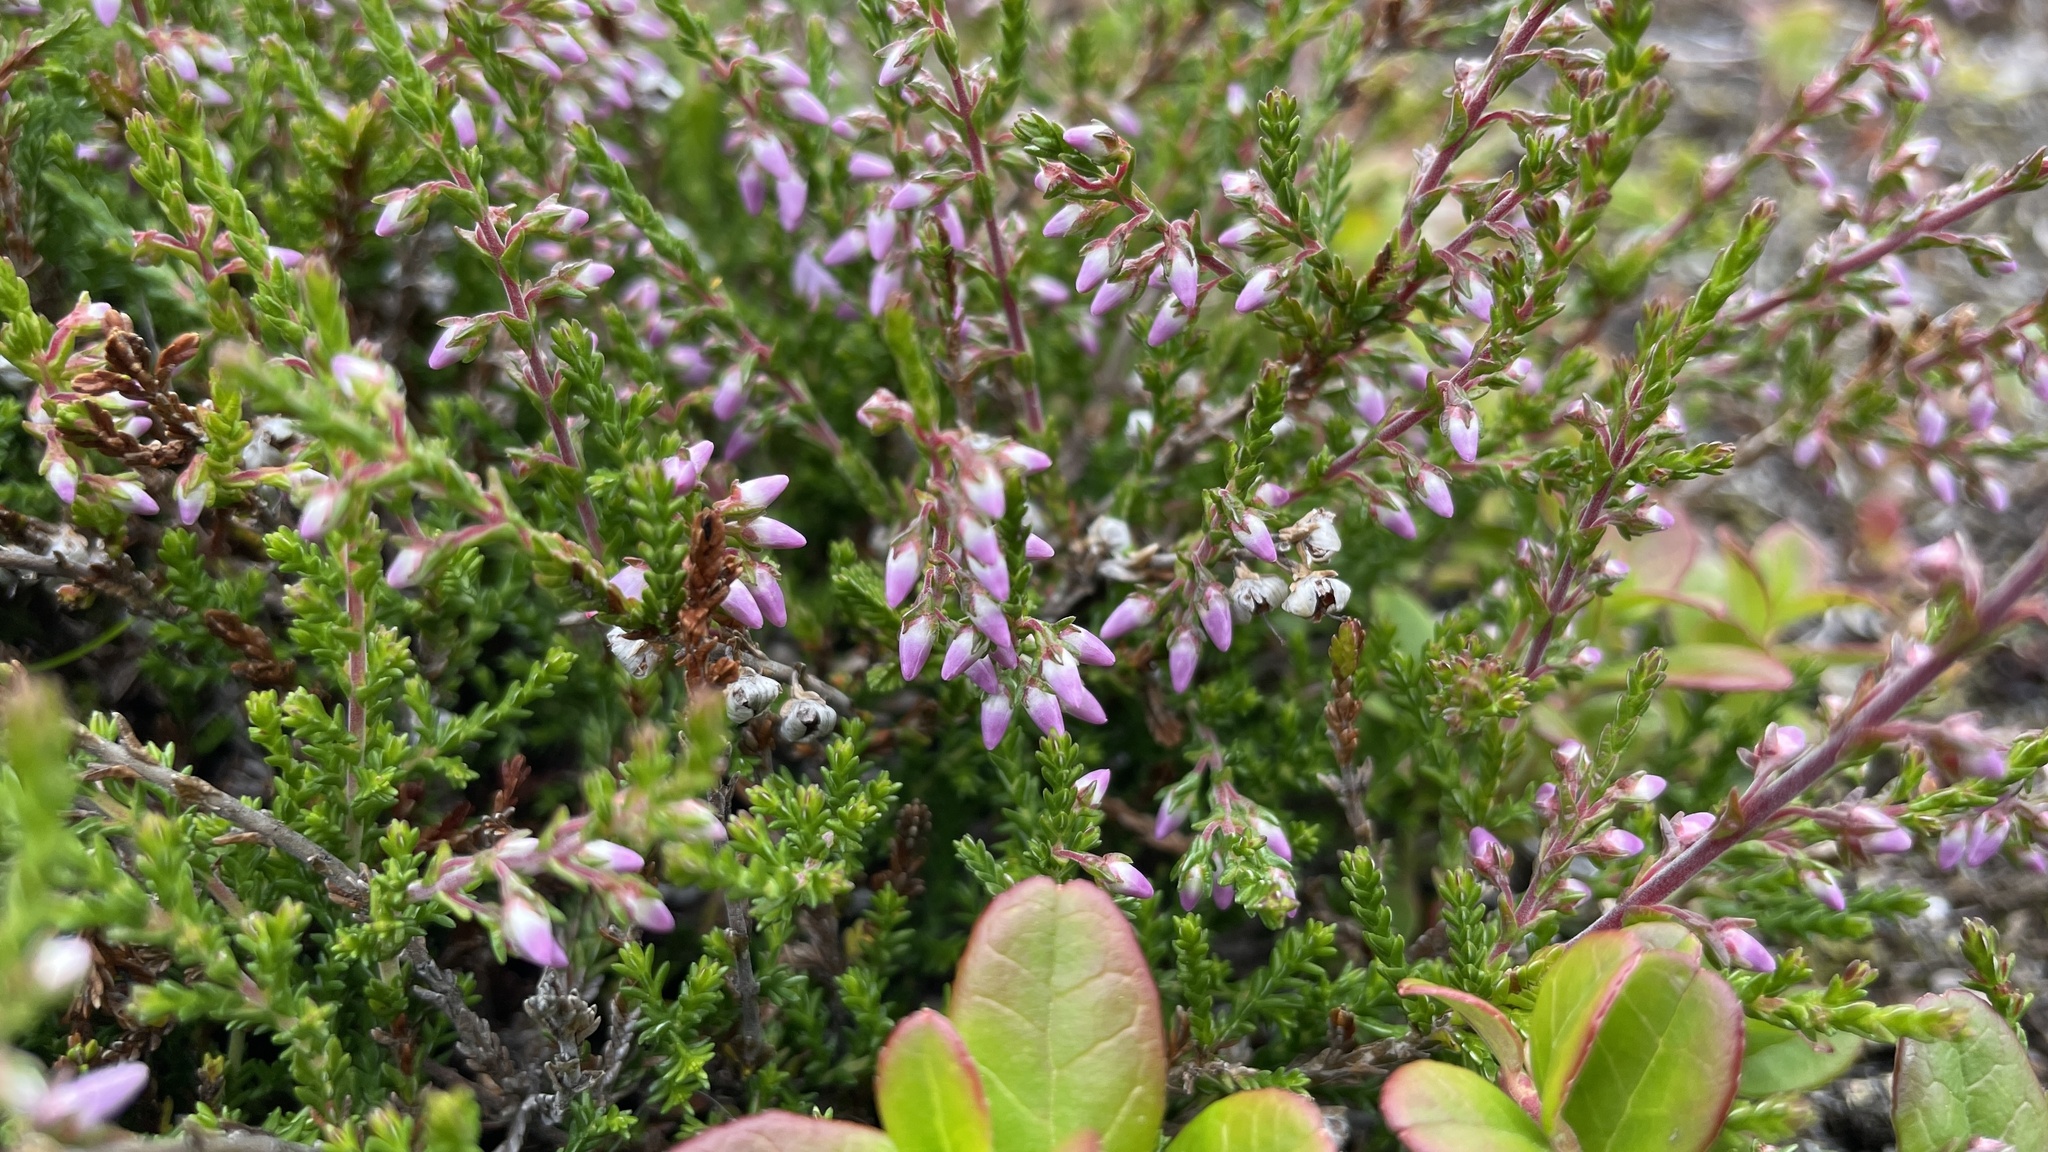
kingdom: Plantae
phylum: Tracheophyta
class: Magnoliopsida
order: Ericales
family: Ericaceae
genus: Calluna
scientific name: Calluna vulgaris
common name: Heather
